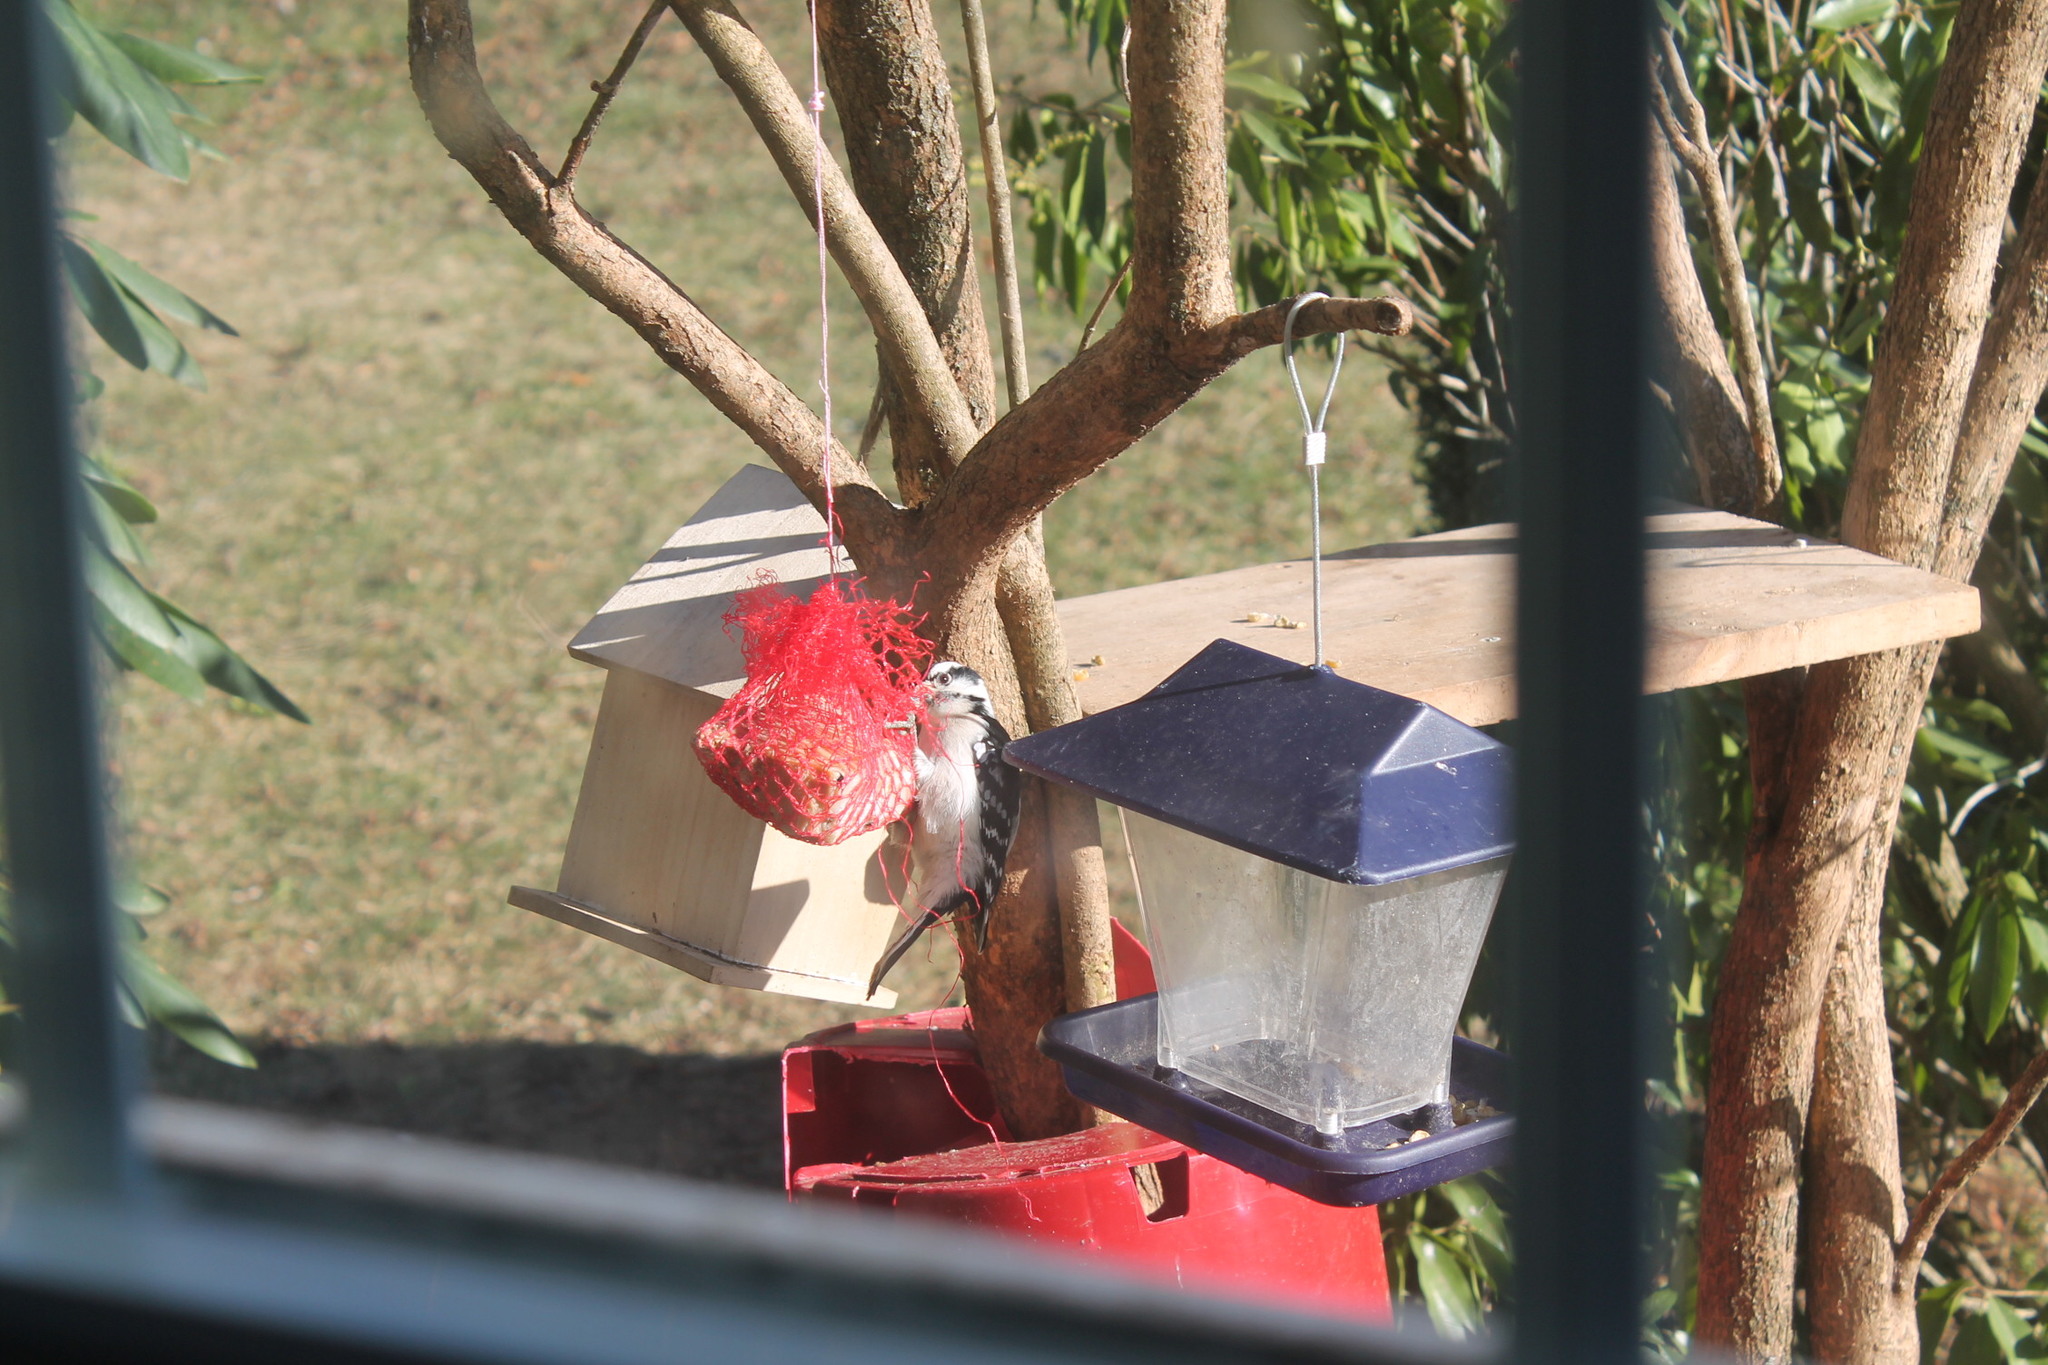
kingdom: Animalia
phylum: Chordata
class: Aves
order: Piciformes
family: Picidae
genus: Dryobates
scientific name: Dryobates pubescens
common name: Downy woodpecker
